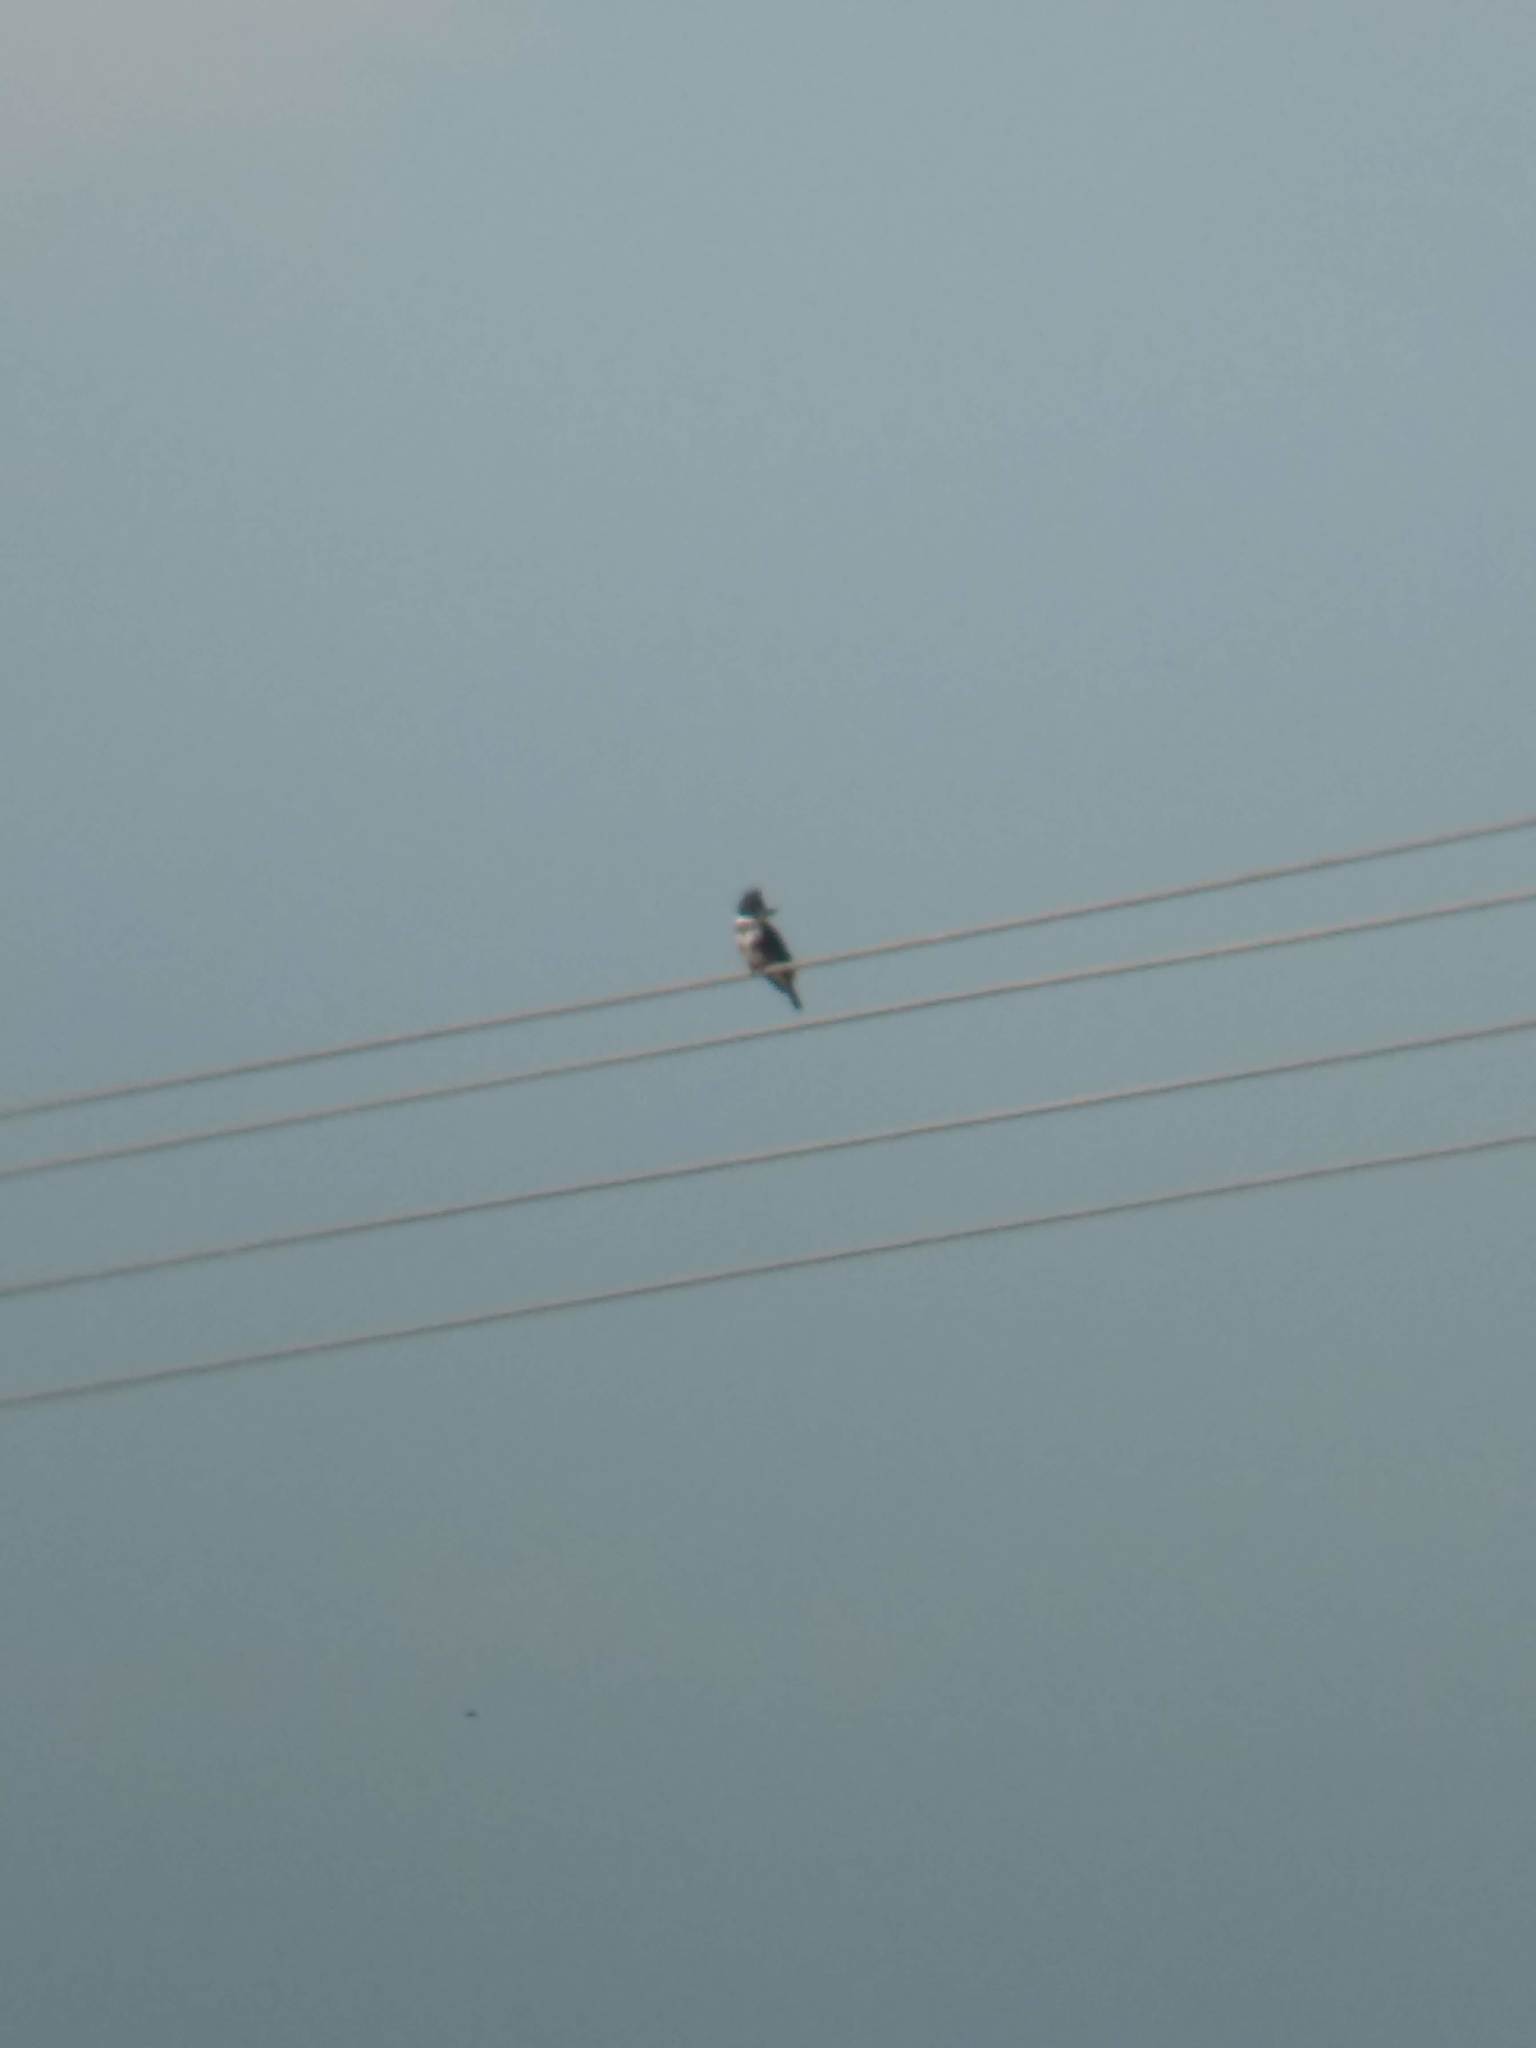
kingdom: Animalia
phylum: Chordata
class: Aves
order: Coraciiformes
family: Alcedinidae
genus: Megaceryle
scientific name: Megaceryle alcyon
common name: Belted kingfisher
